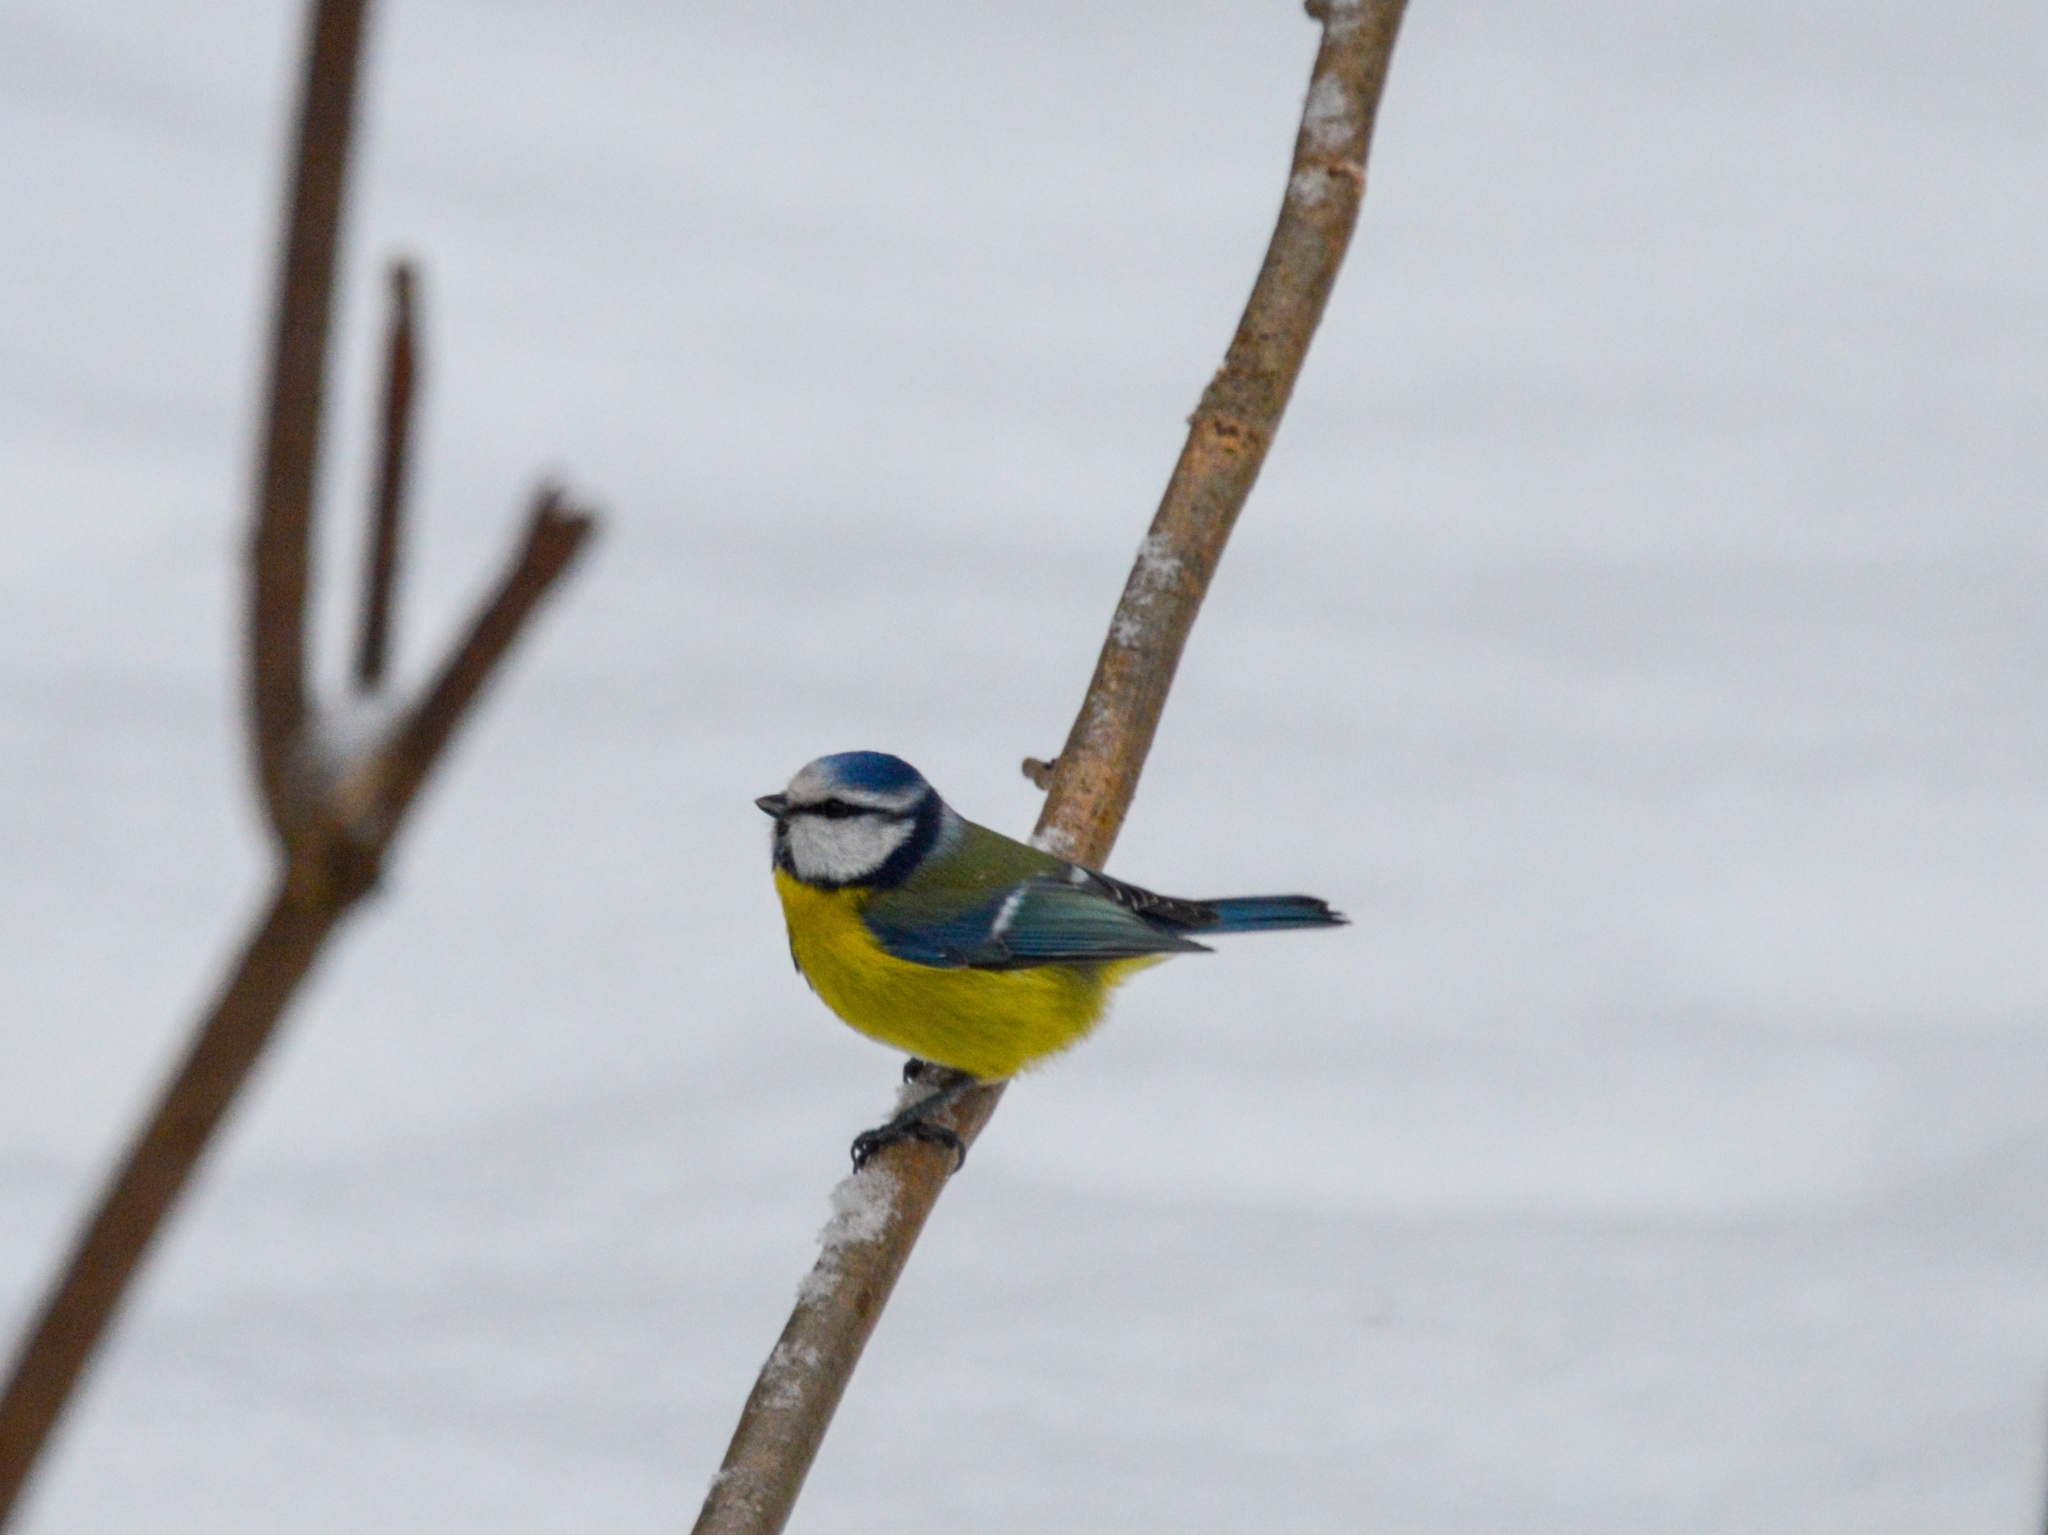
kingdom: Animalia
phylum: Chordata
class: Aves
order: Passeriformes
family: Paridae
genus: Cyanistes
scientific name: Cyanistes caeruleus
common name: Eurasian blue tit
